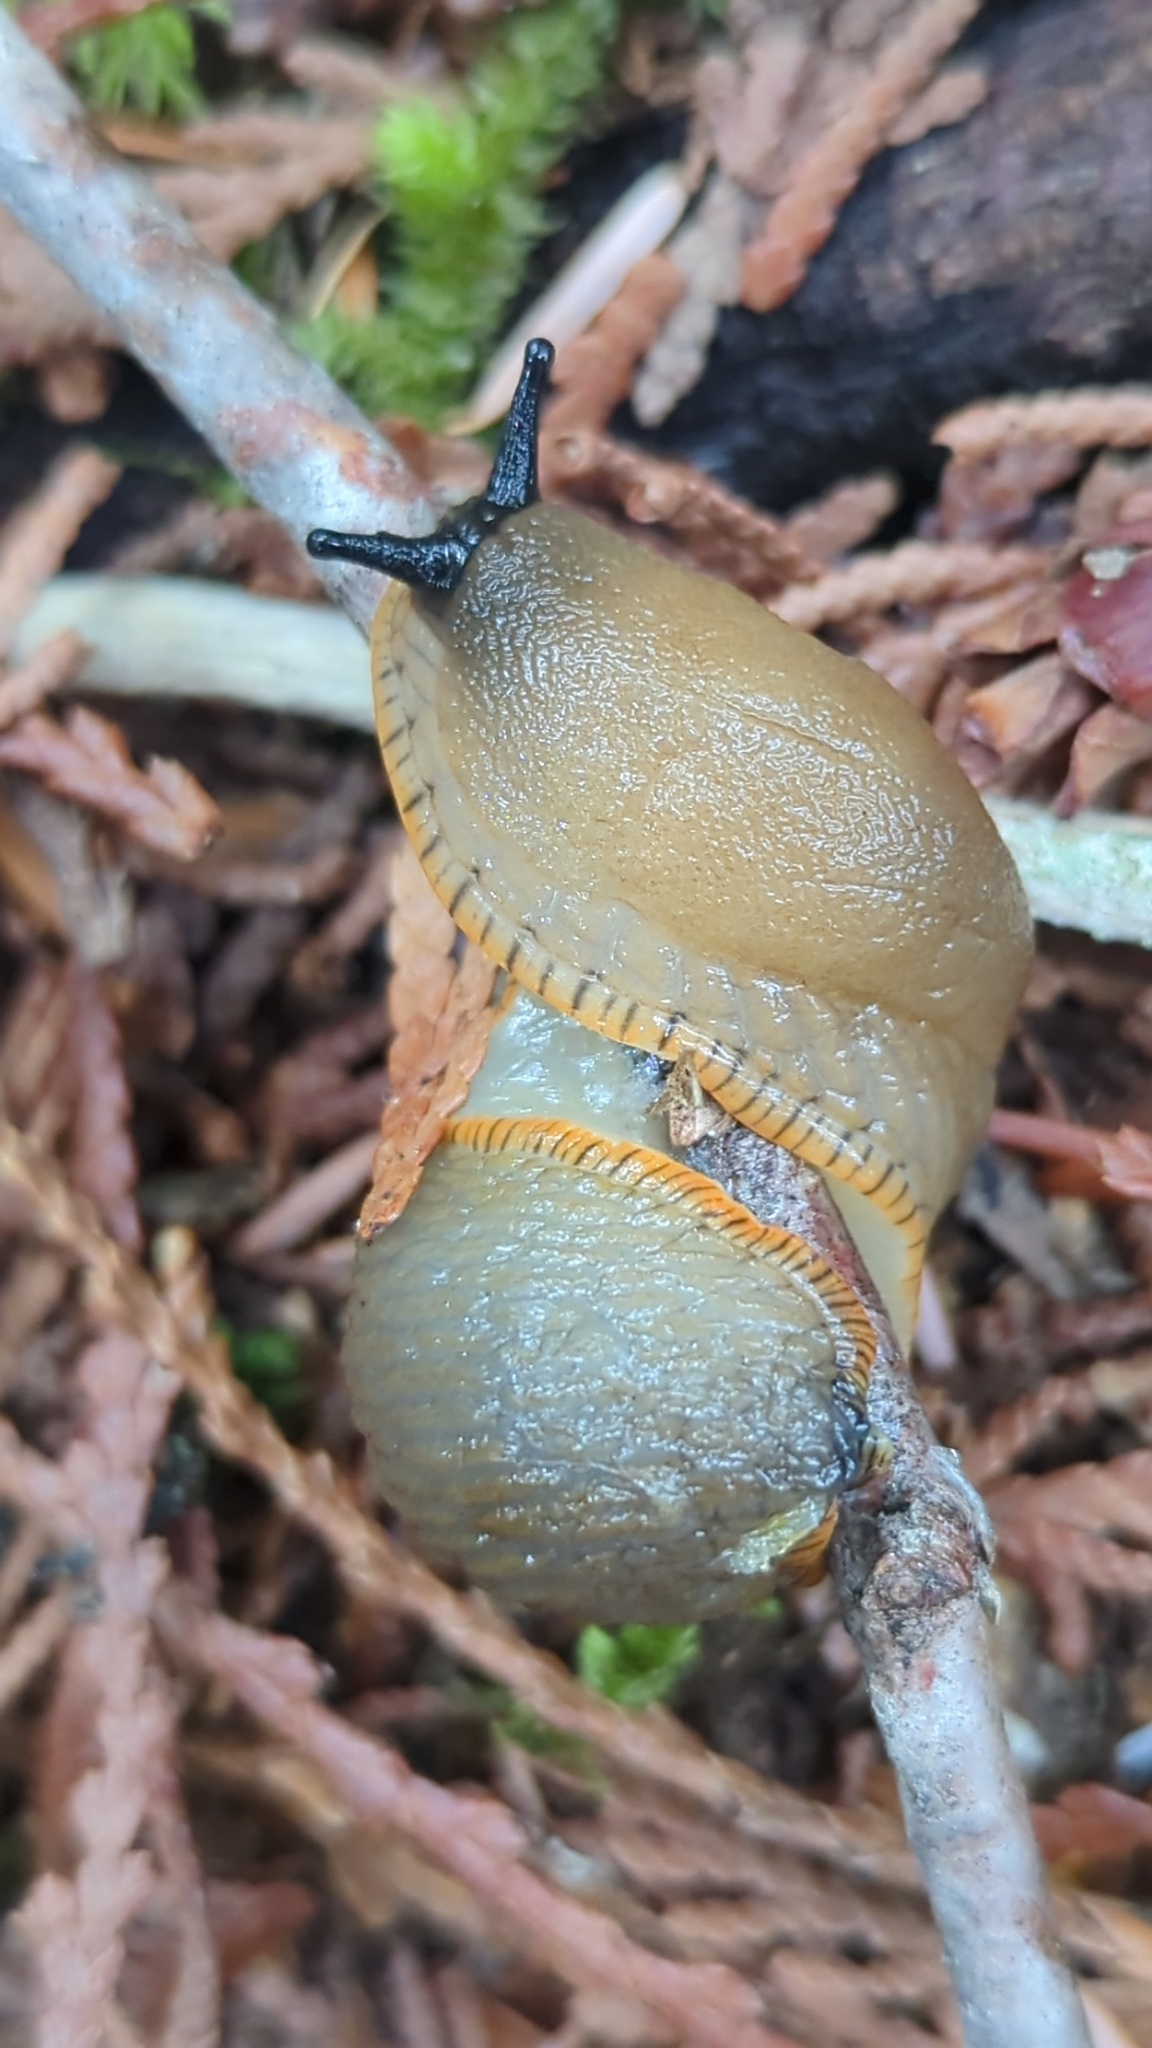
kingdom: Animalia
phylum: Mollusca
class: Gastropoda
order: Stylommatophora
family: Arionidae
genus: Arion
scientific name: Arion
